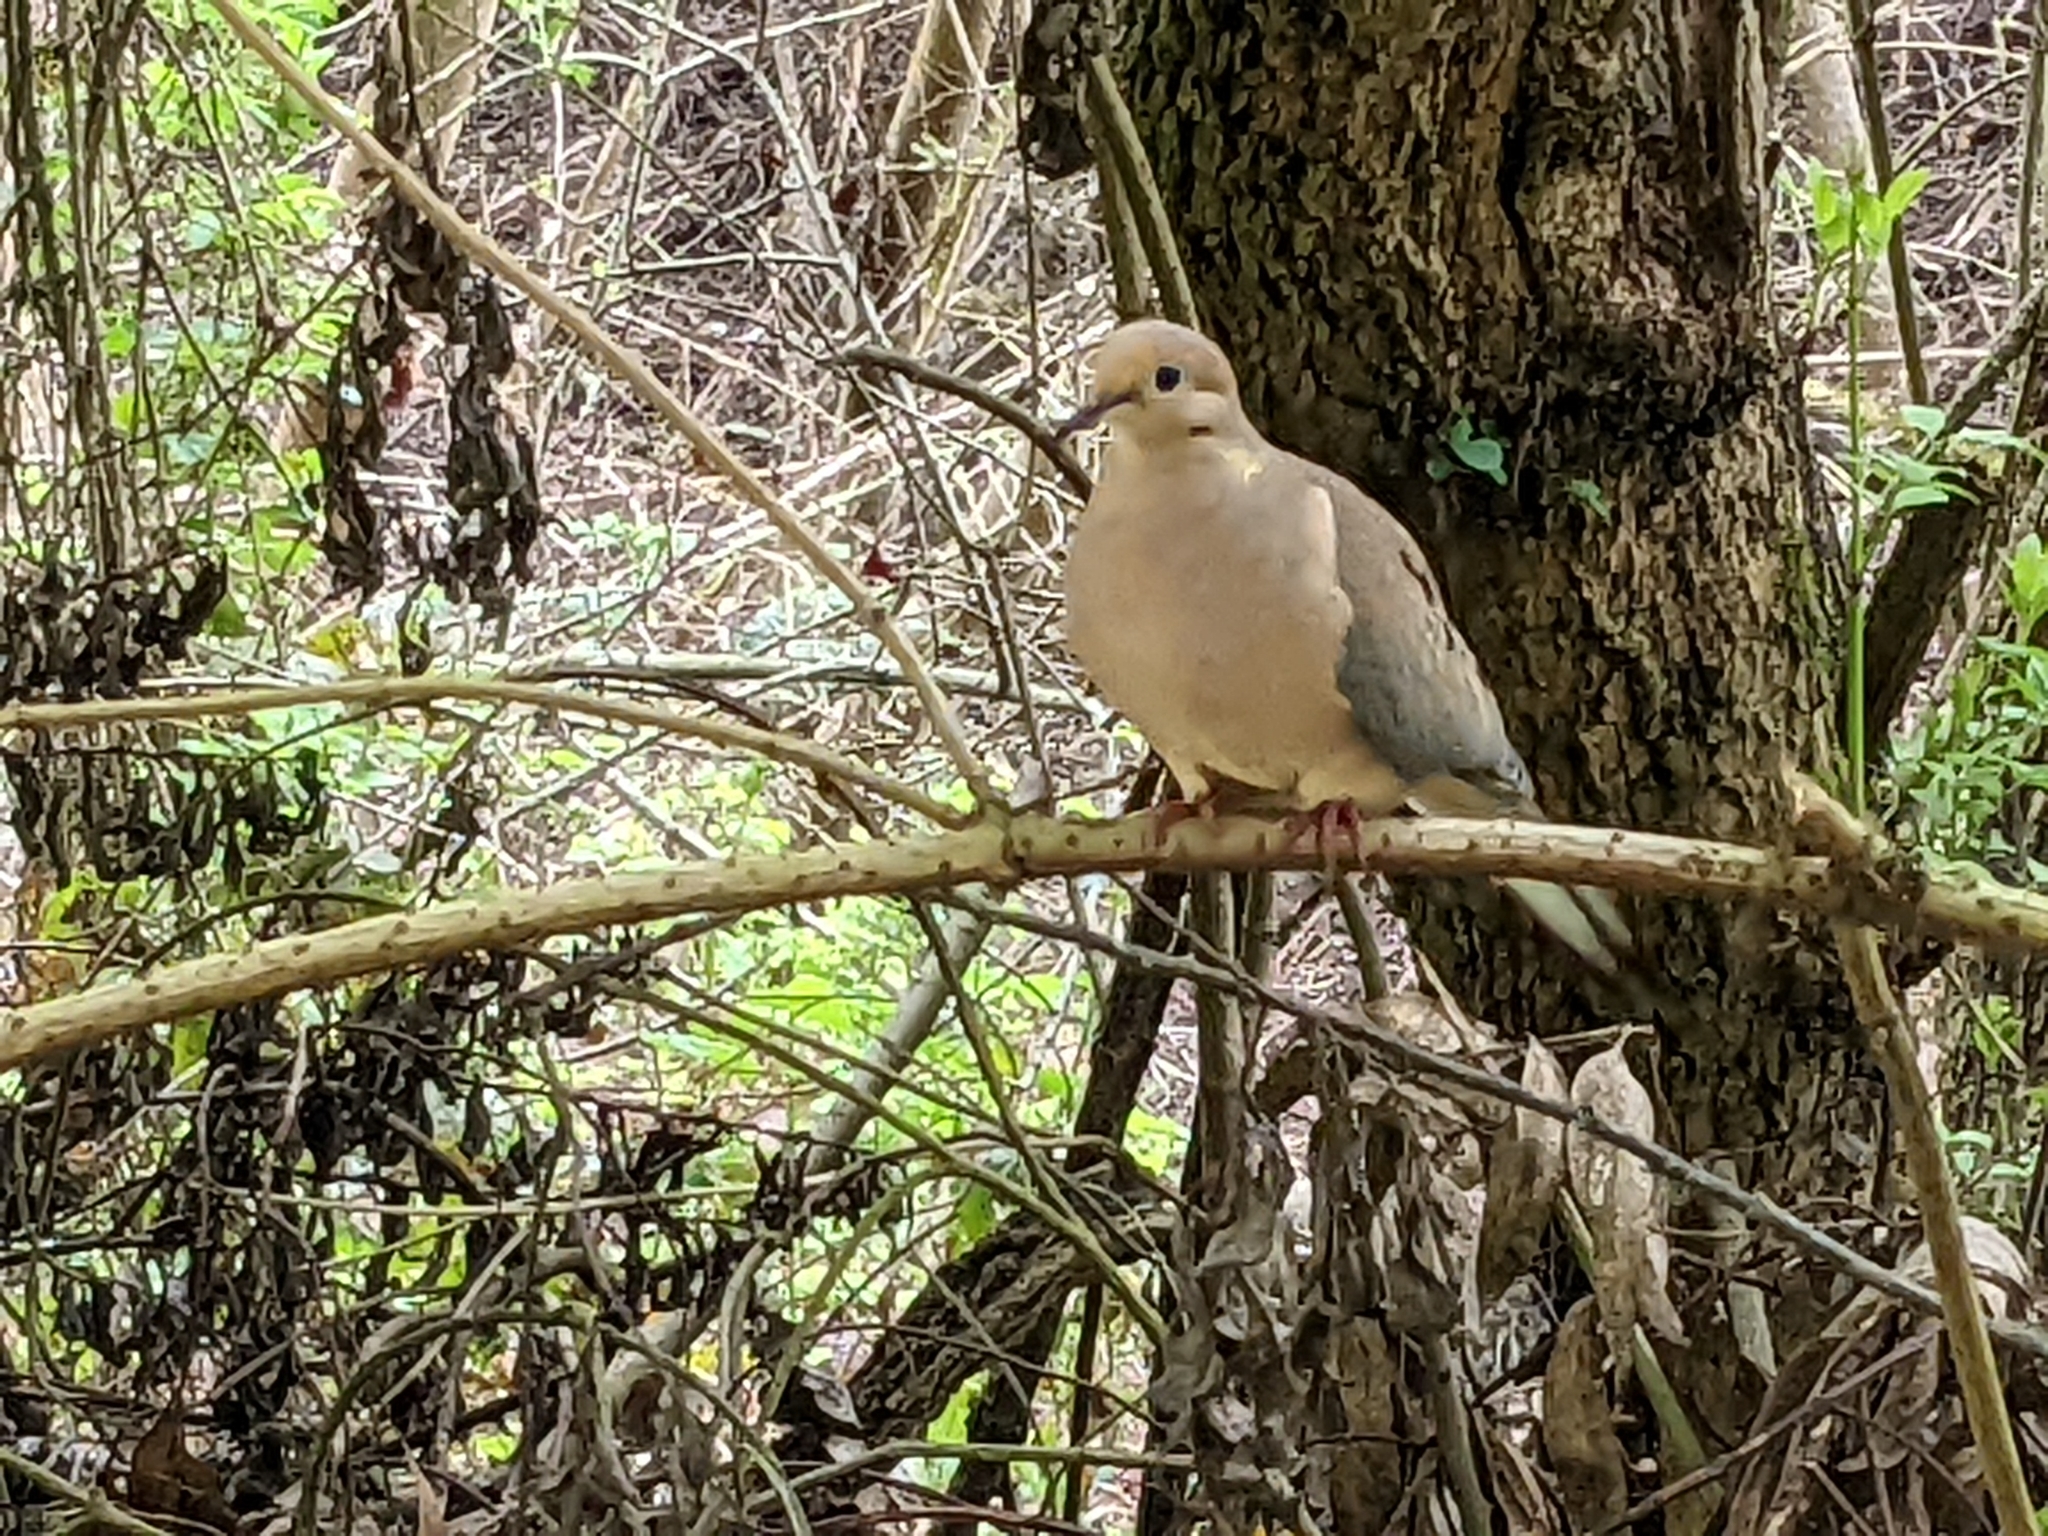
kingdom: Animalia
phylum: Chordata
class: Aves
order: Columbiformes
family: Columbidae
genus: Zenaida
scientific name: Zenaida macroura
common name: Mourning dove
